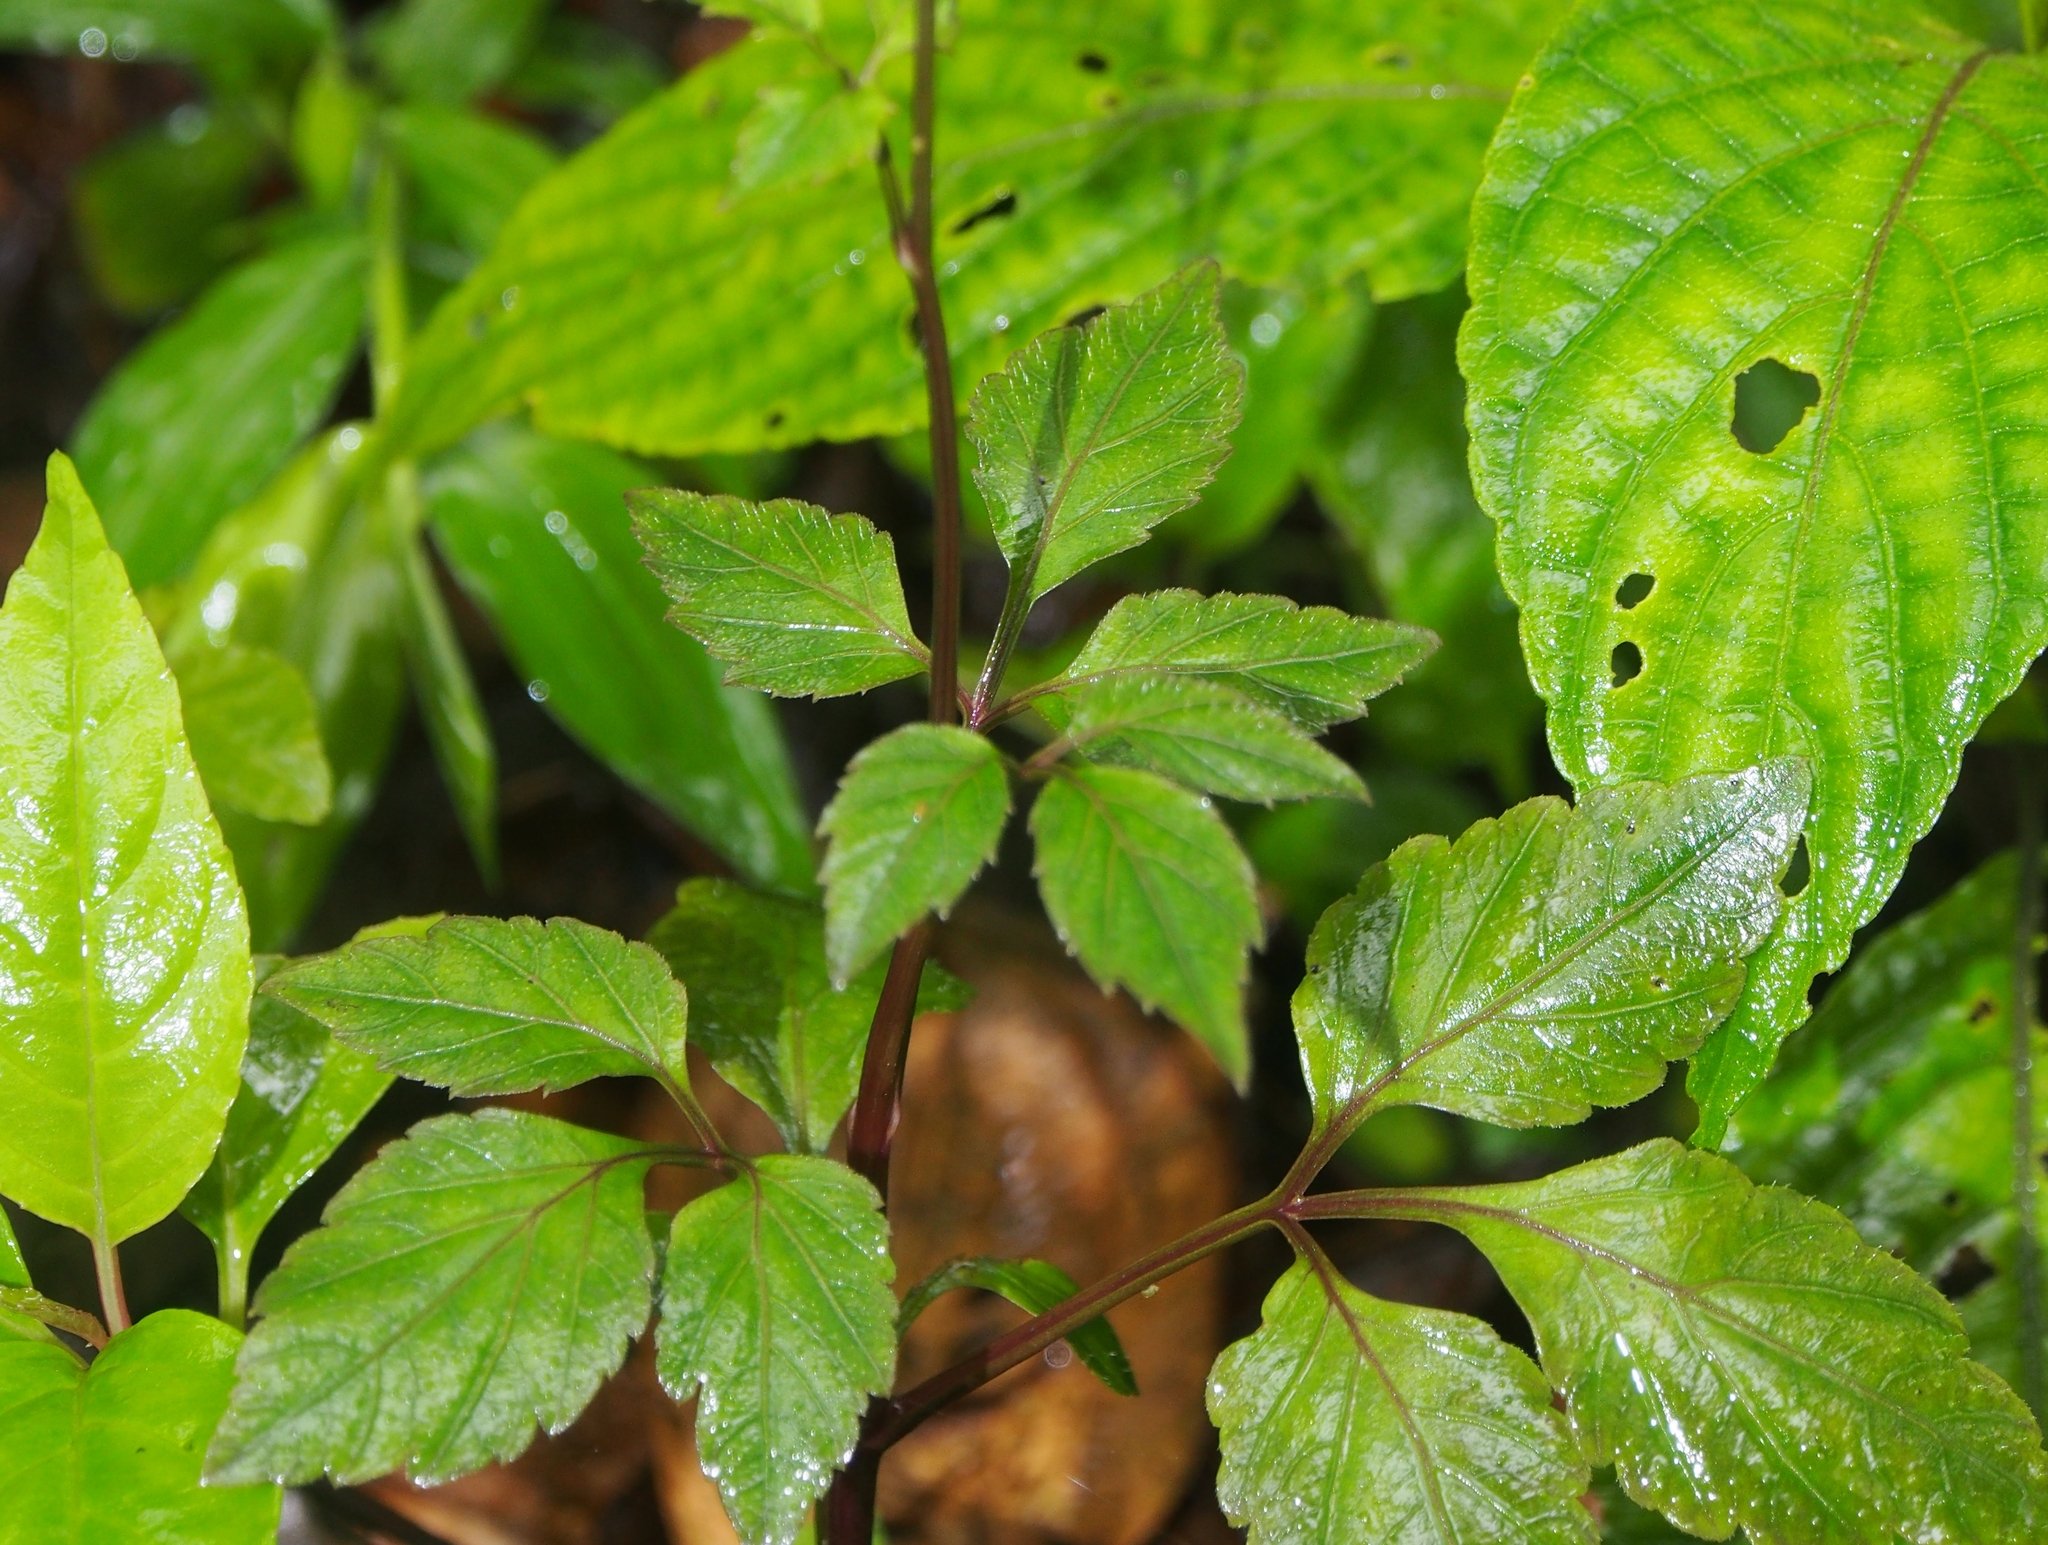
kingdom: Plantae
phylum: Tracheophyta
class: Magnoliopsida
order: Brassicales
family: Brassicaceae
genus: Cardamine
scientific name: Cardamine fulcrata
